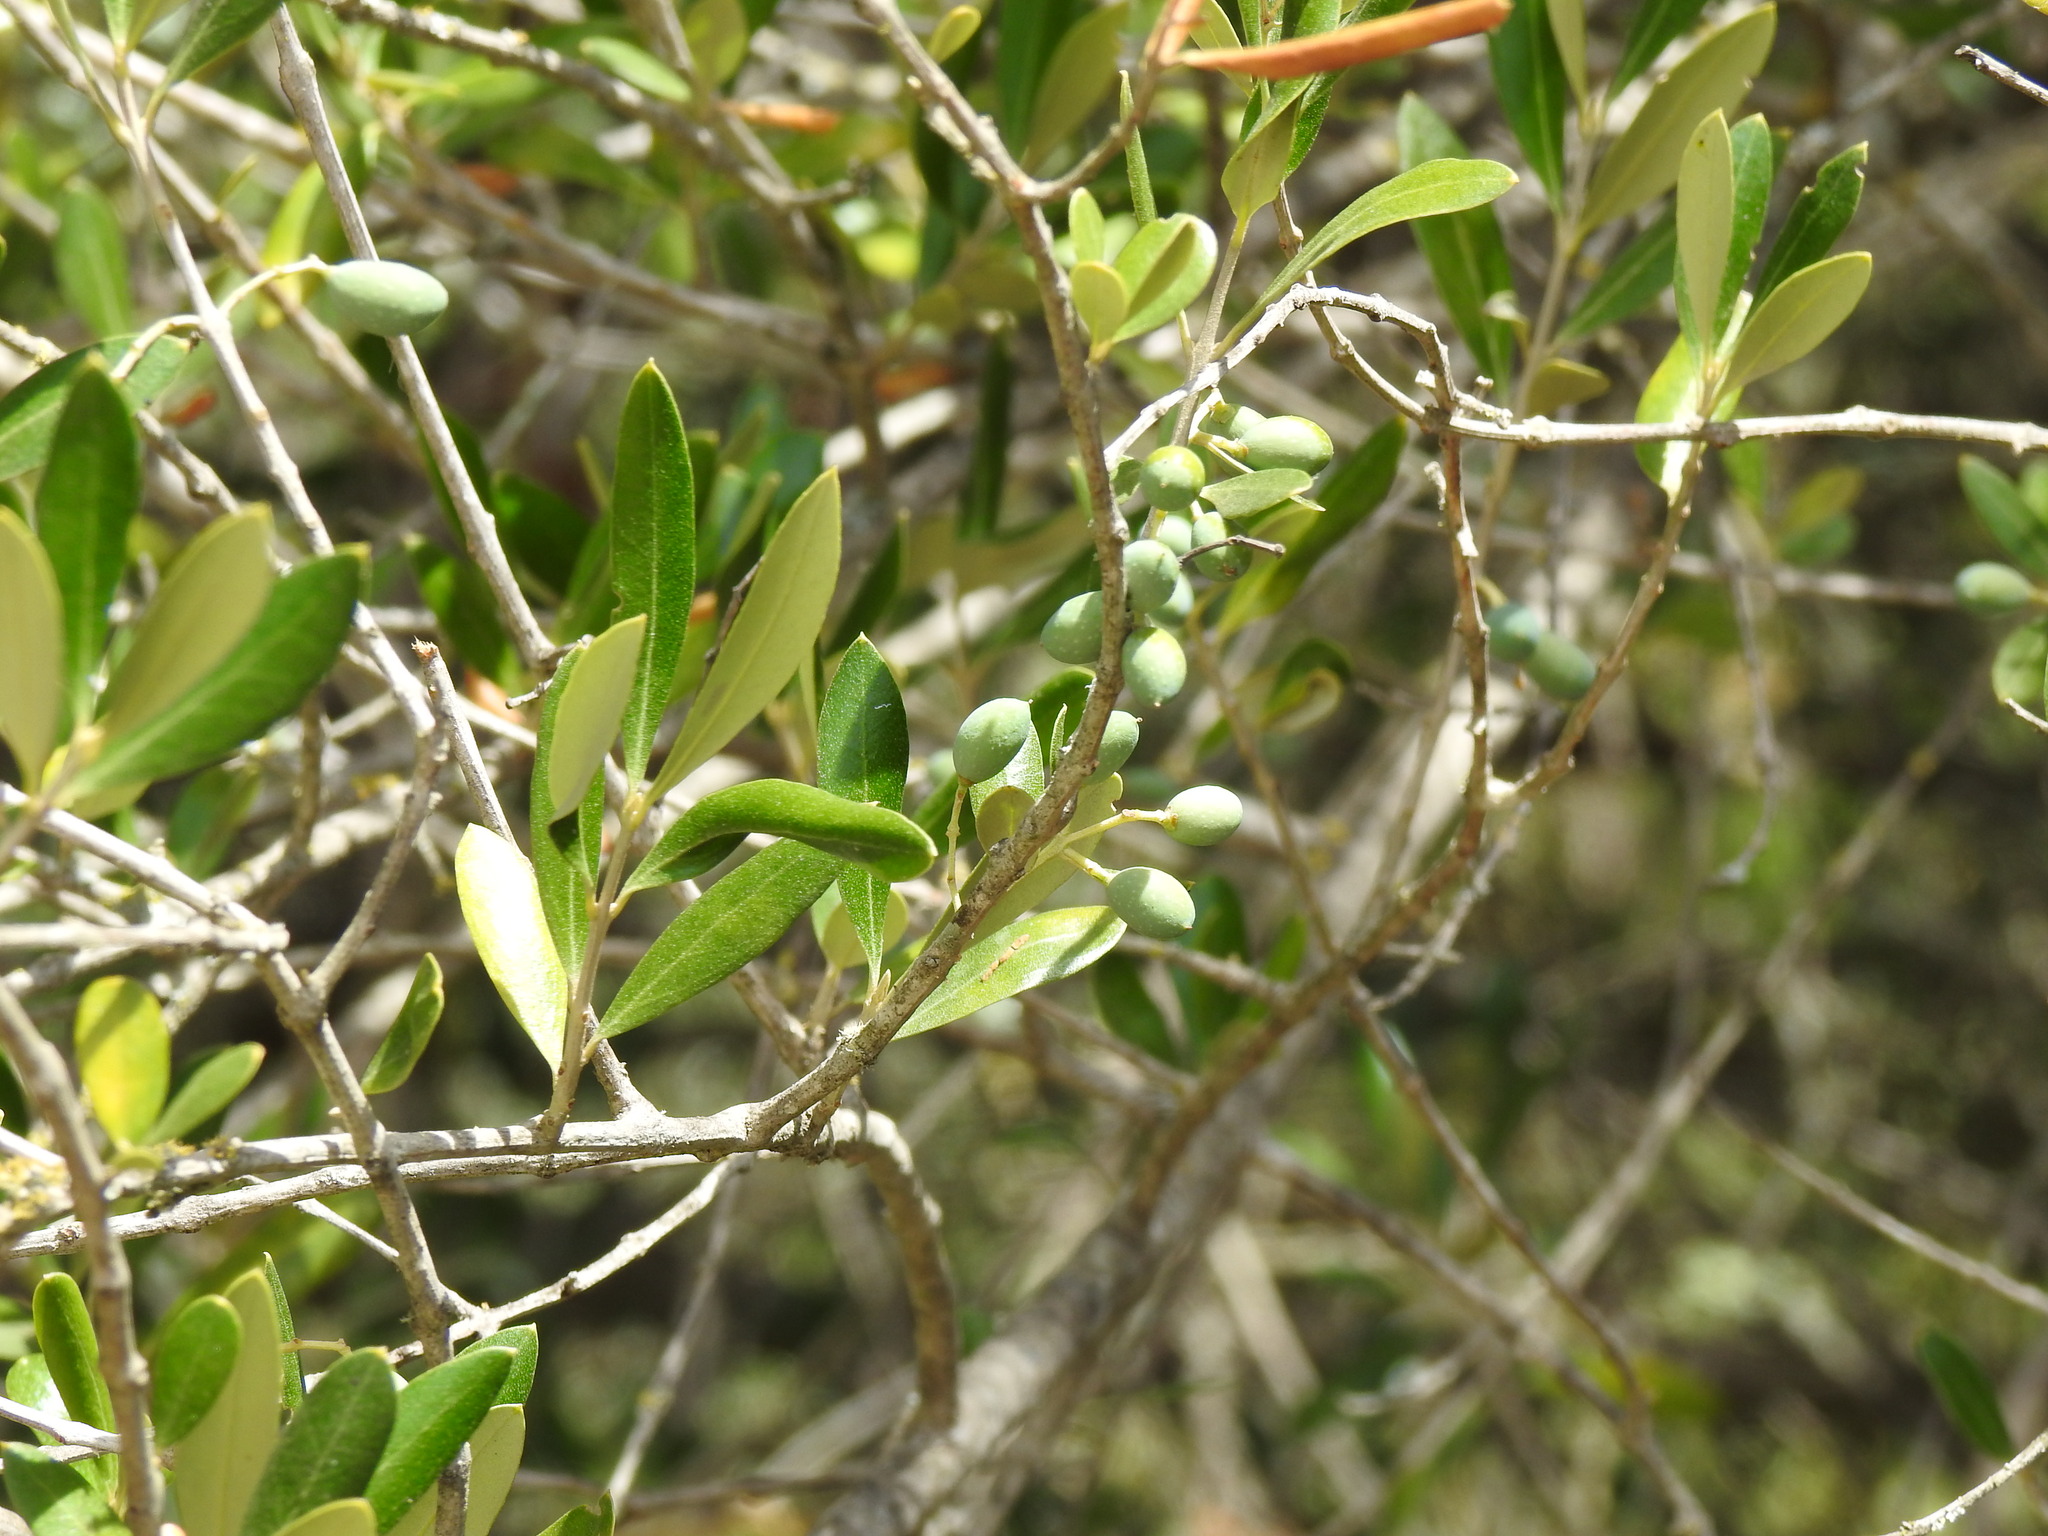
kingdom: Plantae
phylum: Tracheophyta
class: Magnoliopsida
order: Lamiales
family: Oleaceae
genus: Olea
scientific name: Olea europaea
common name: Olive
